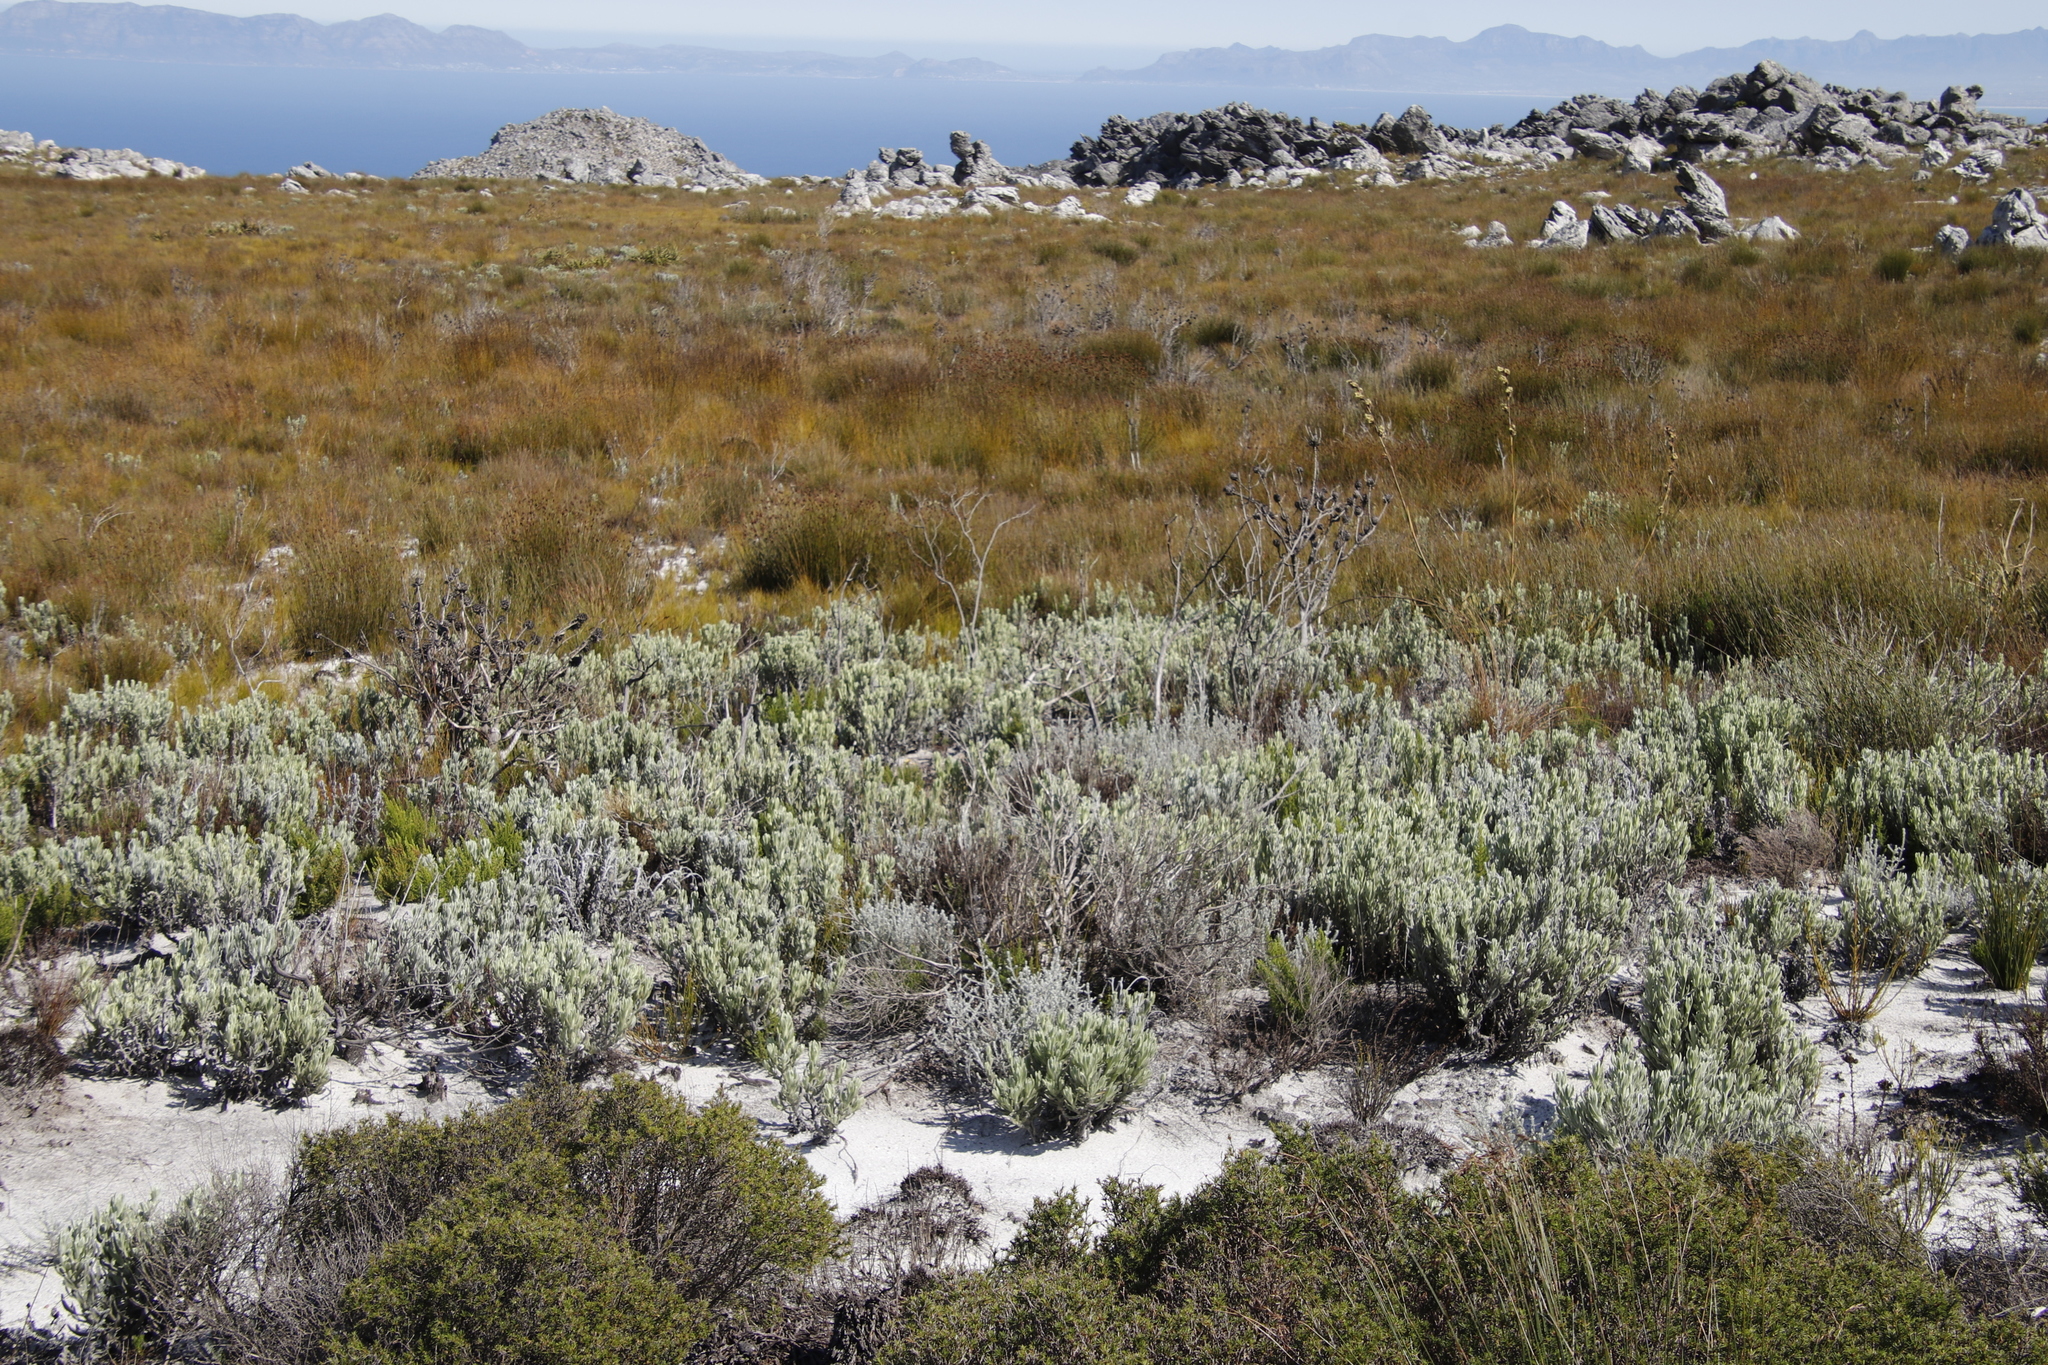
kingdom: Plantae
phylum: Tracheophyta
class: Magnoliopsida
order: Asterales
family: Asteraceae
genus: Syncarpha
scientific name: Syncarpha vestita
